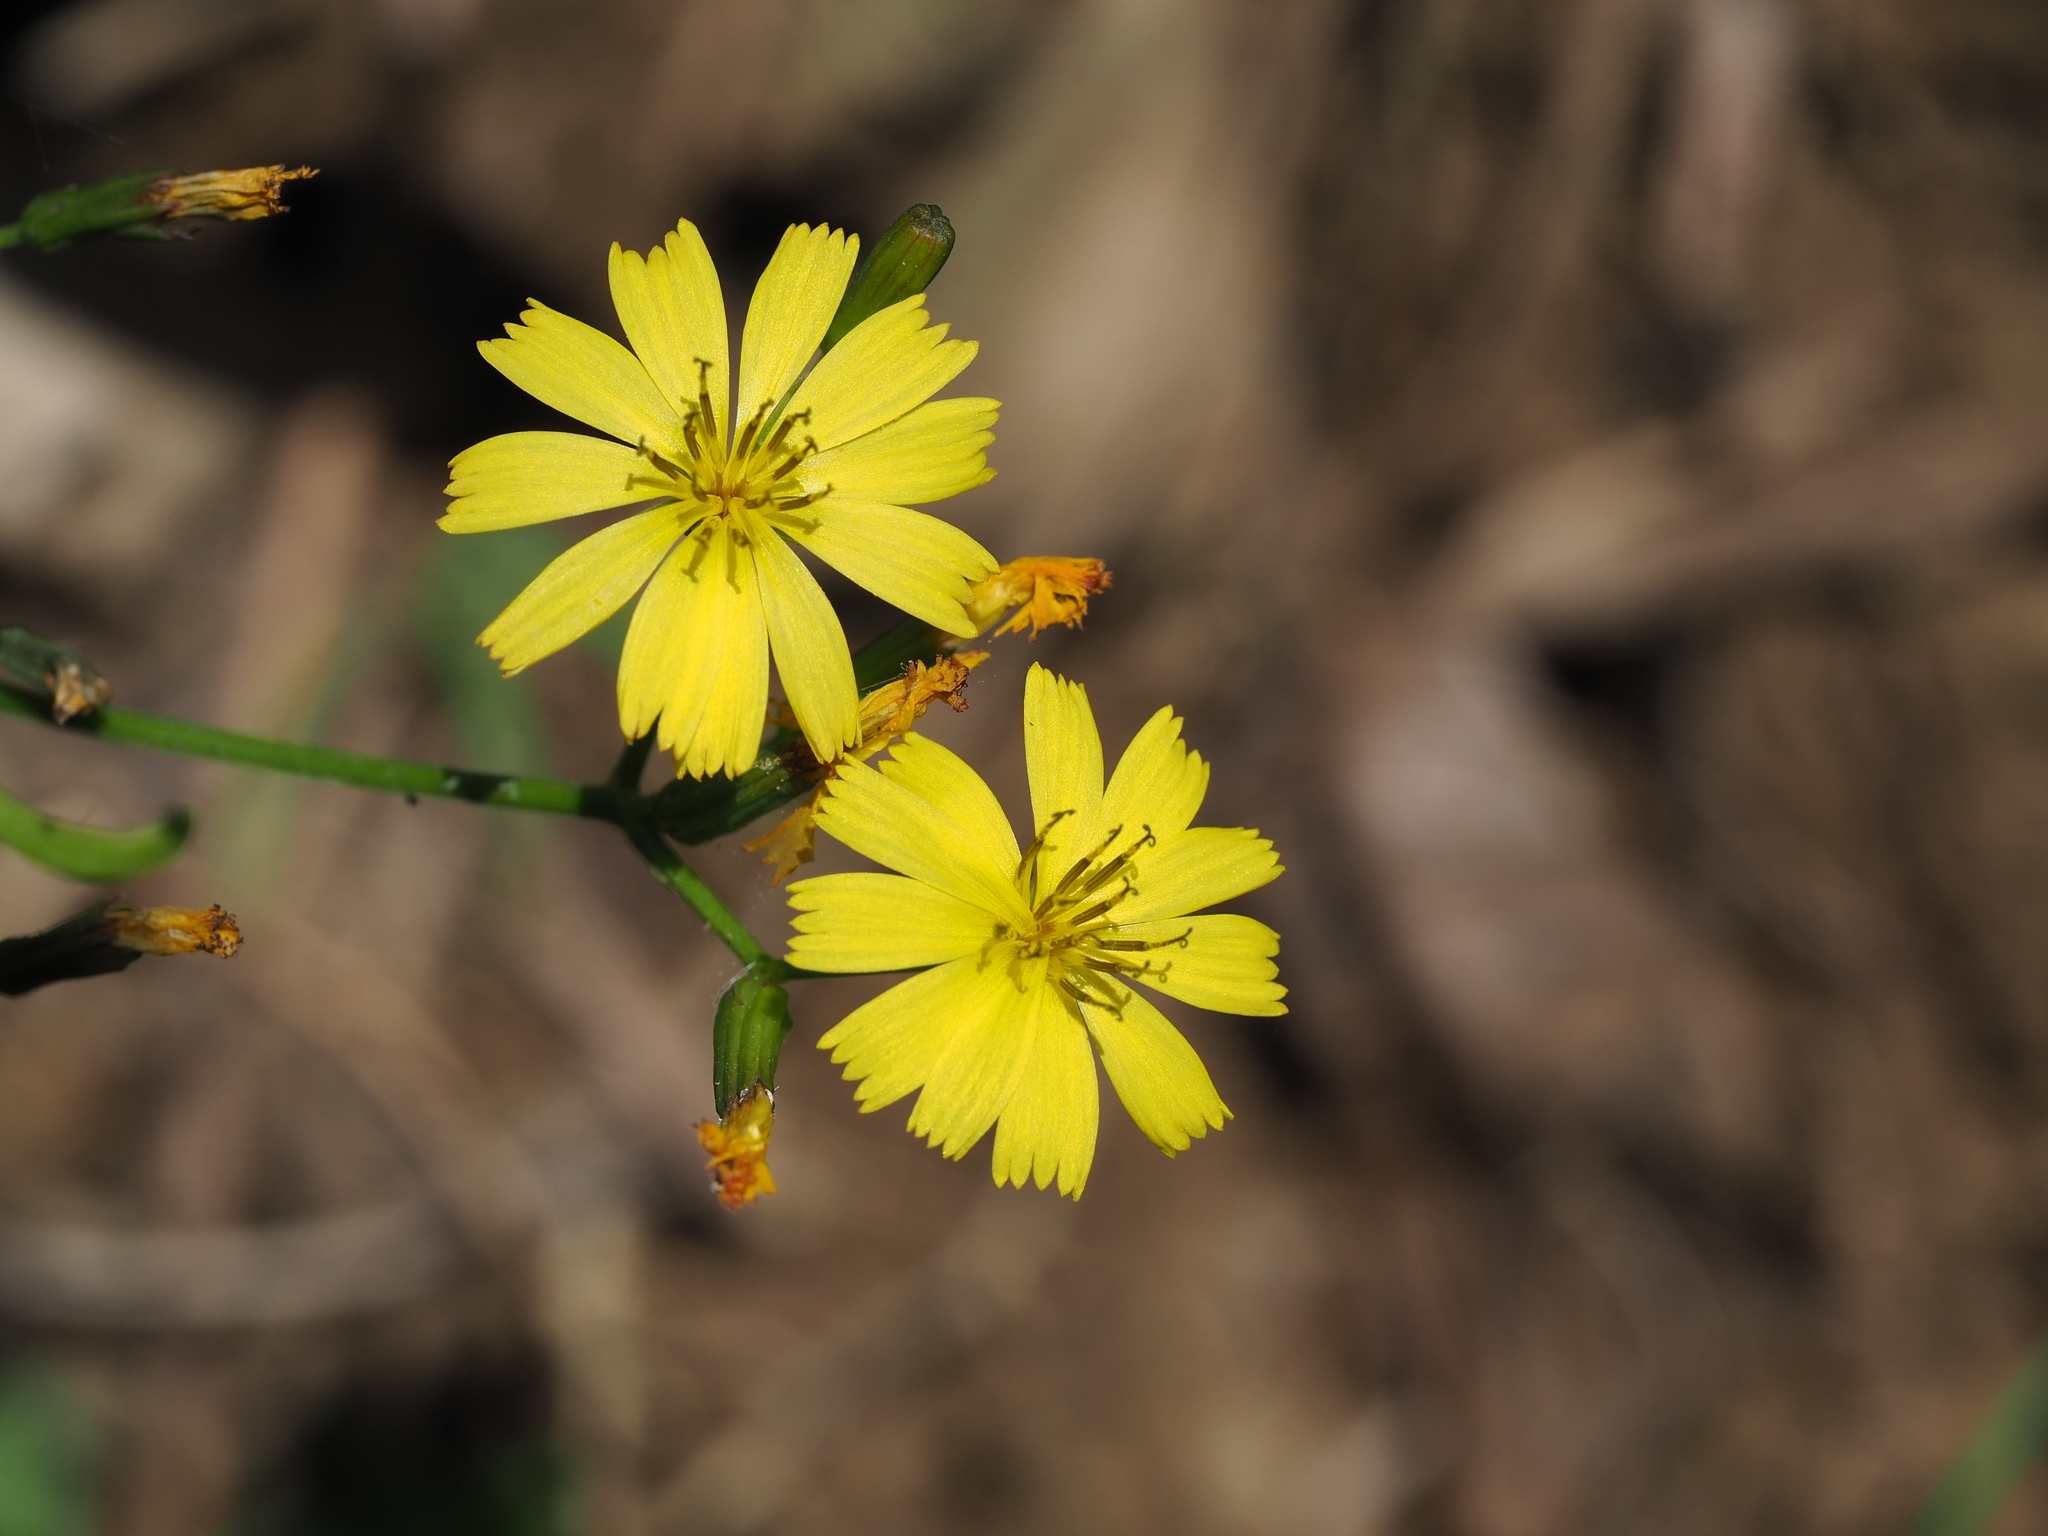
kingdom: Plantae
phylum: Tracheophyta
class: Magnoliopsida
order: Asterales
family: Asteraceae
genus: Ixeridium
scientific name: Ixeridium laevigatum
